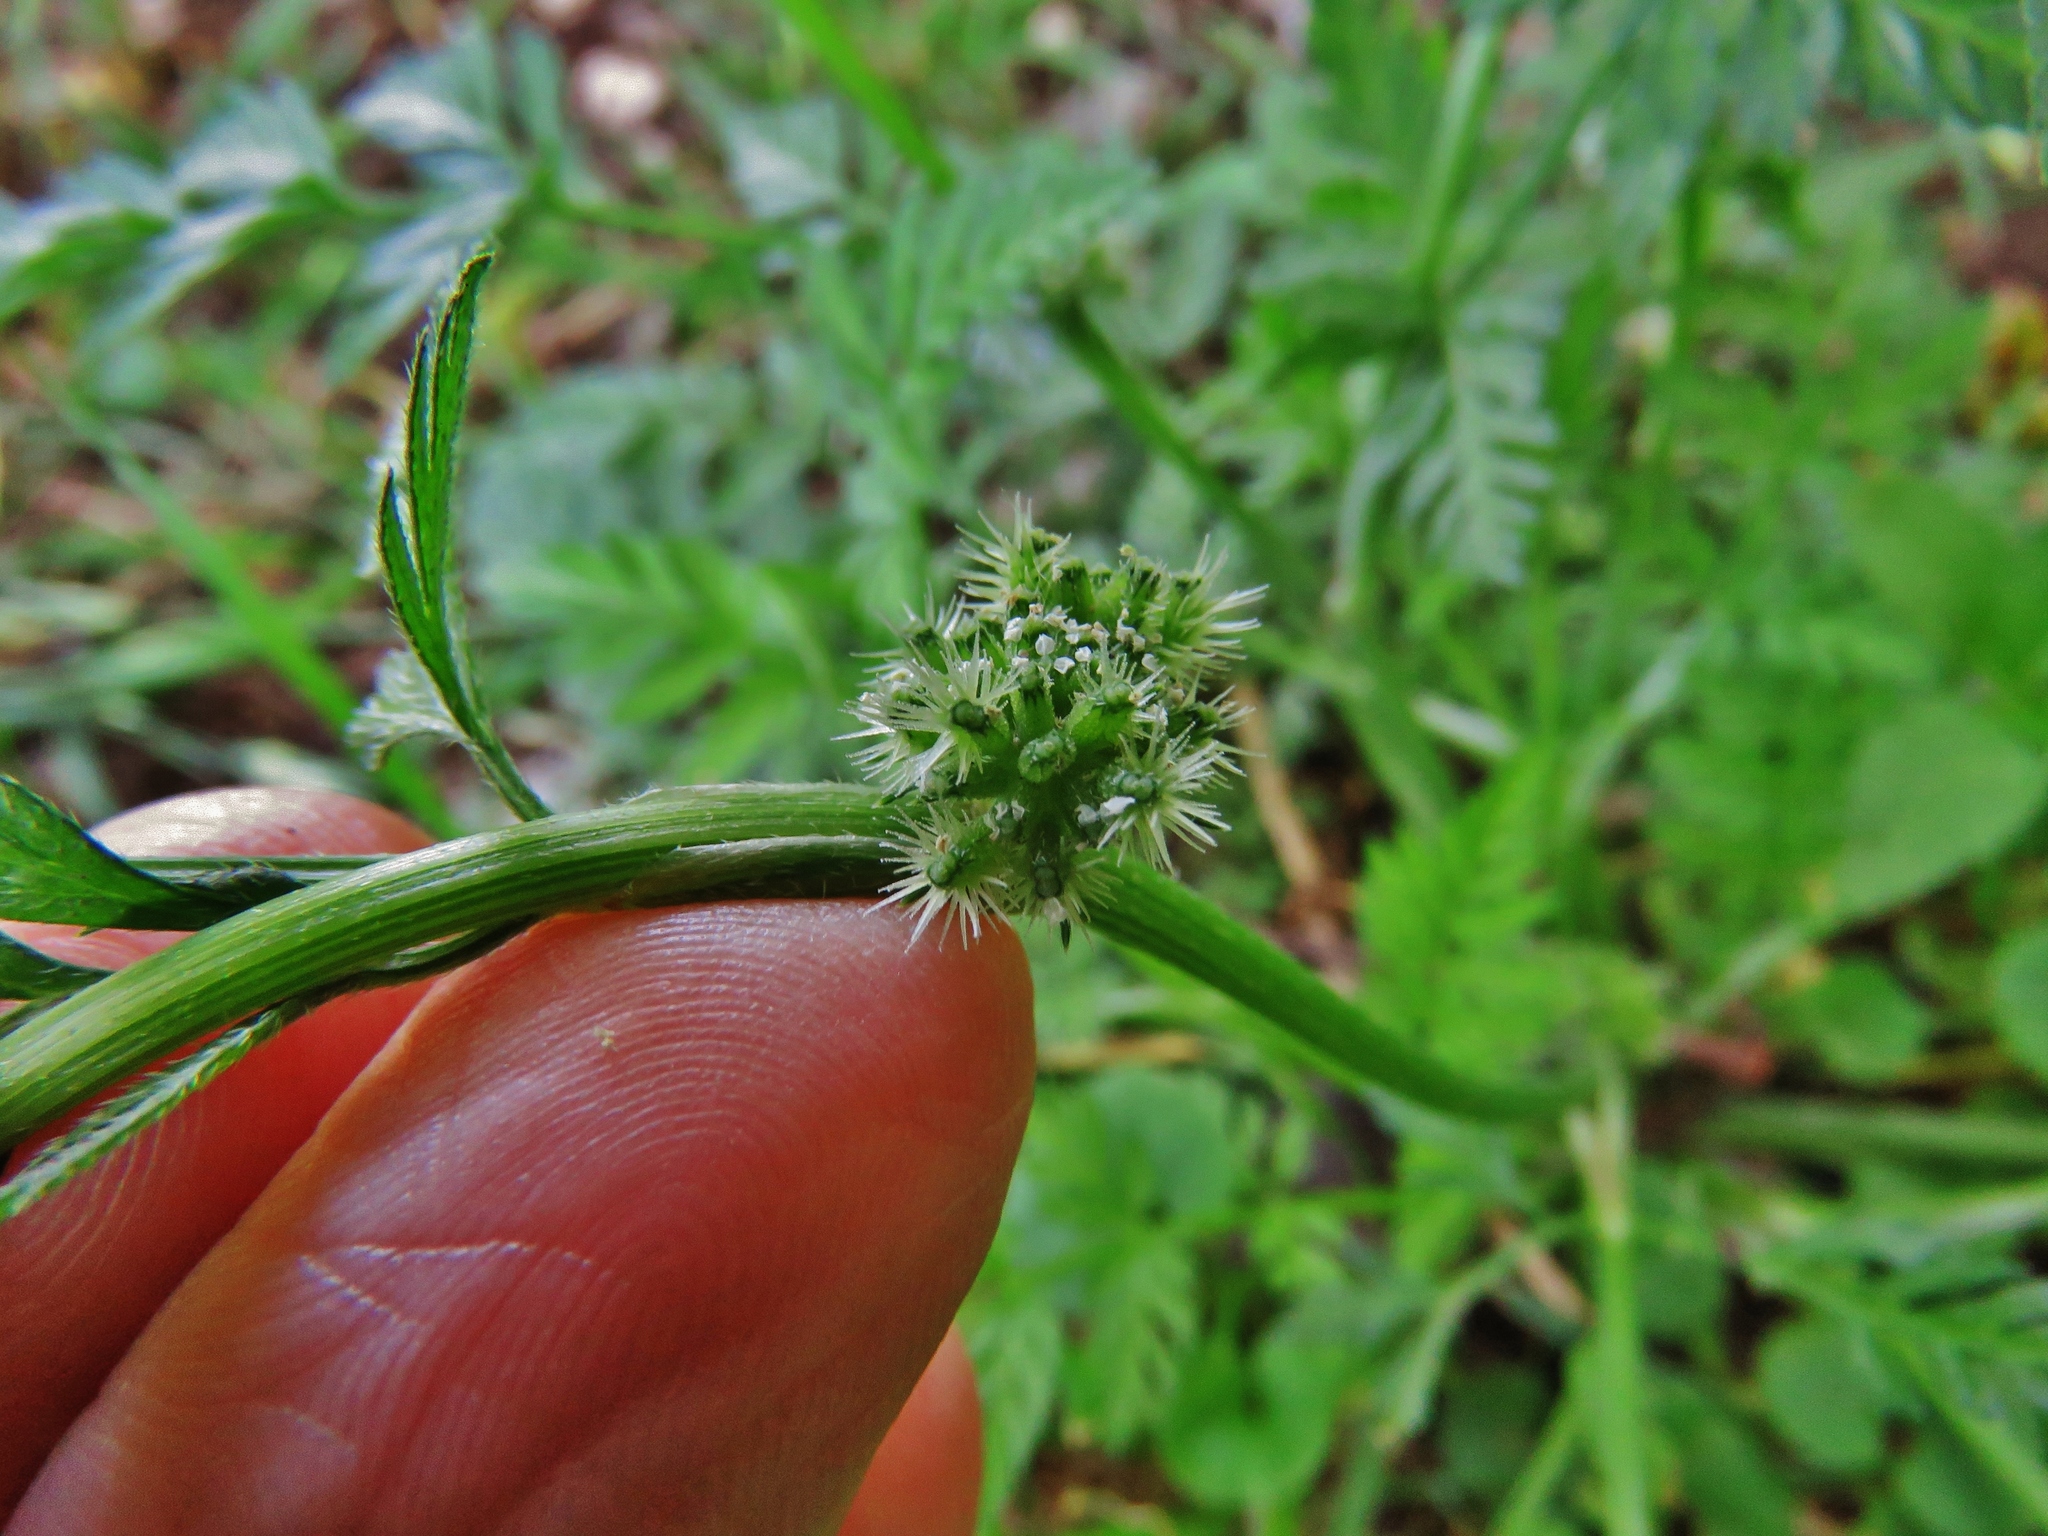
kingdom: Plantae
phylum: Tracheophyta
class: Magnoliopsida
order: Apiales
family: Apiaceae
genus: Torilis
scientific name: Torilis nodosa
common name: Knotted hedge-parsley
